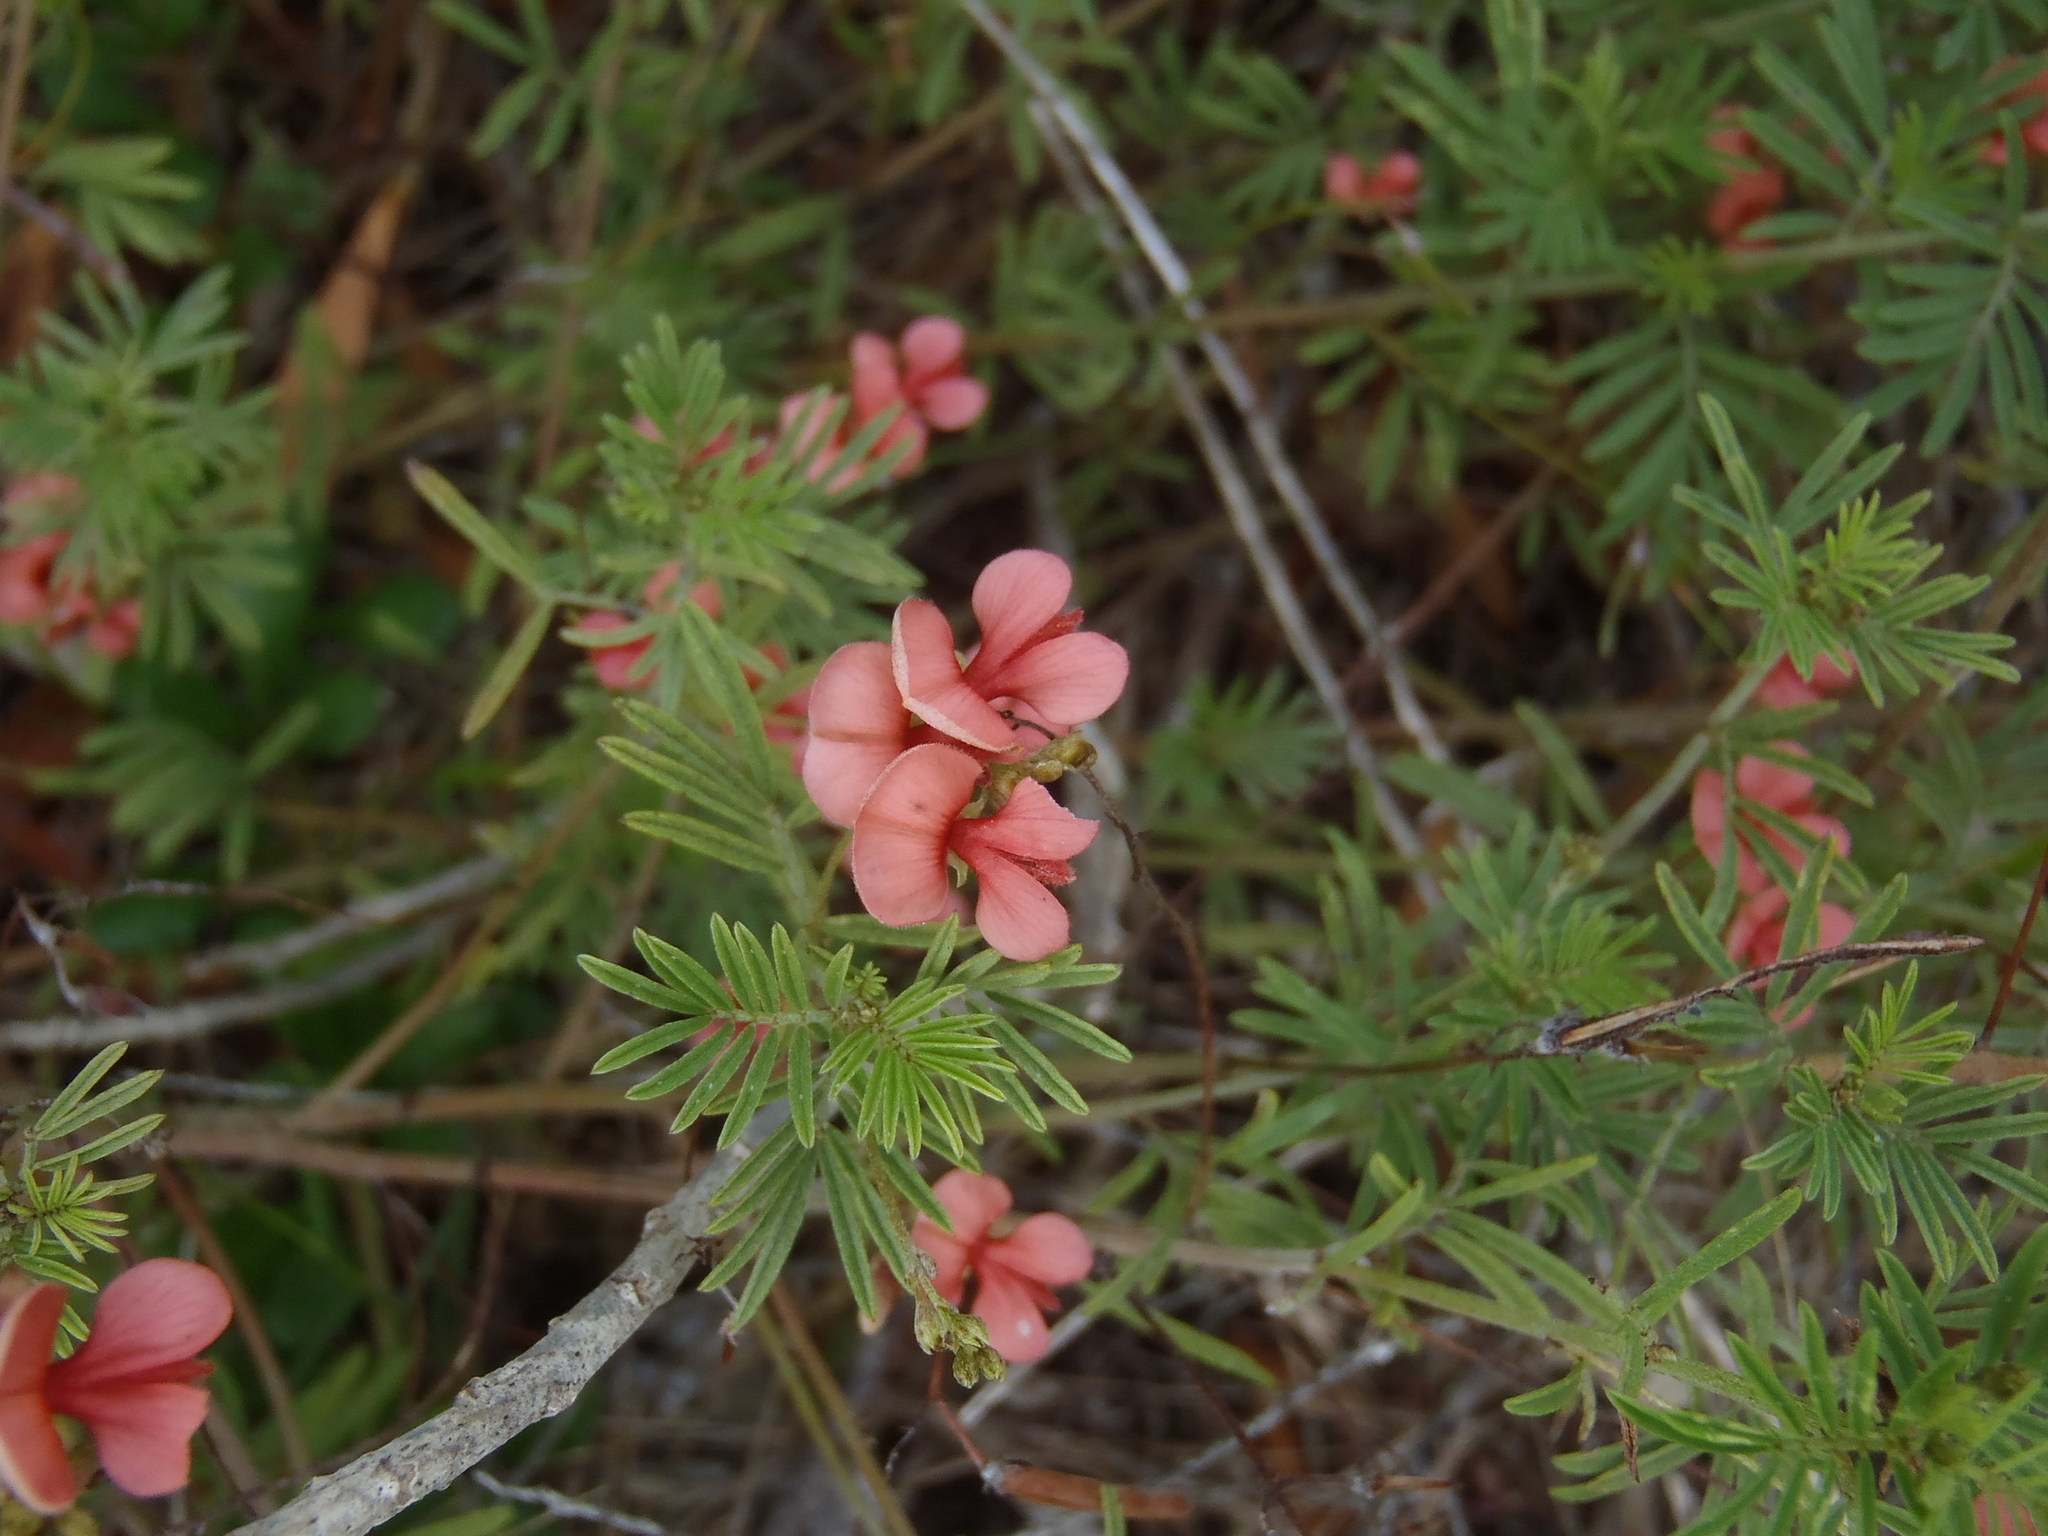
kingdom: Plantae
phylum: Tracheophyta
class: Magnoliopsida
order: Fabales
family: Fabaceae
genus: Indigofera
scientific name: Indigofera verrucosa
